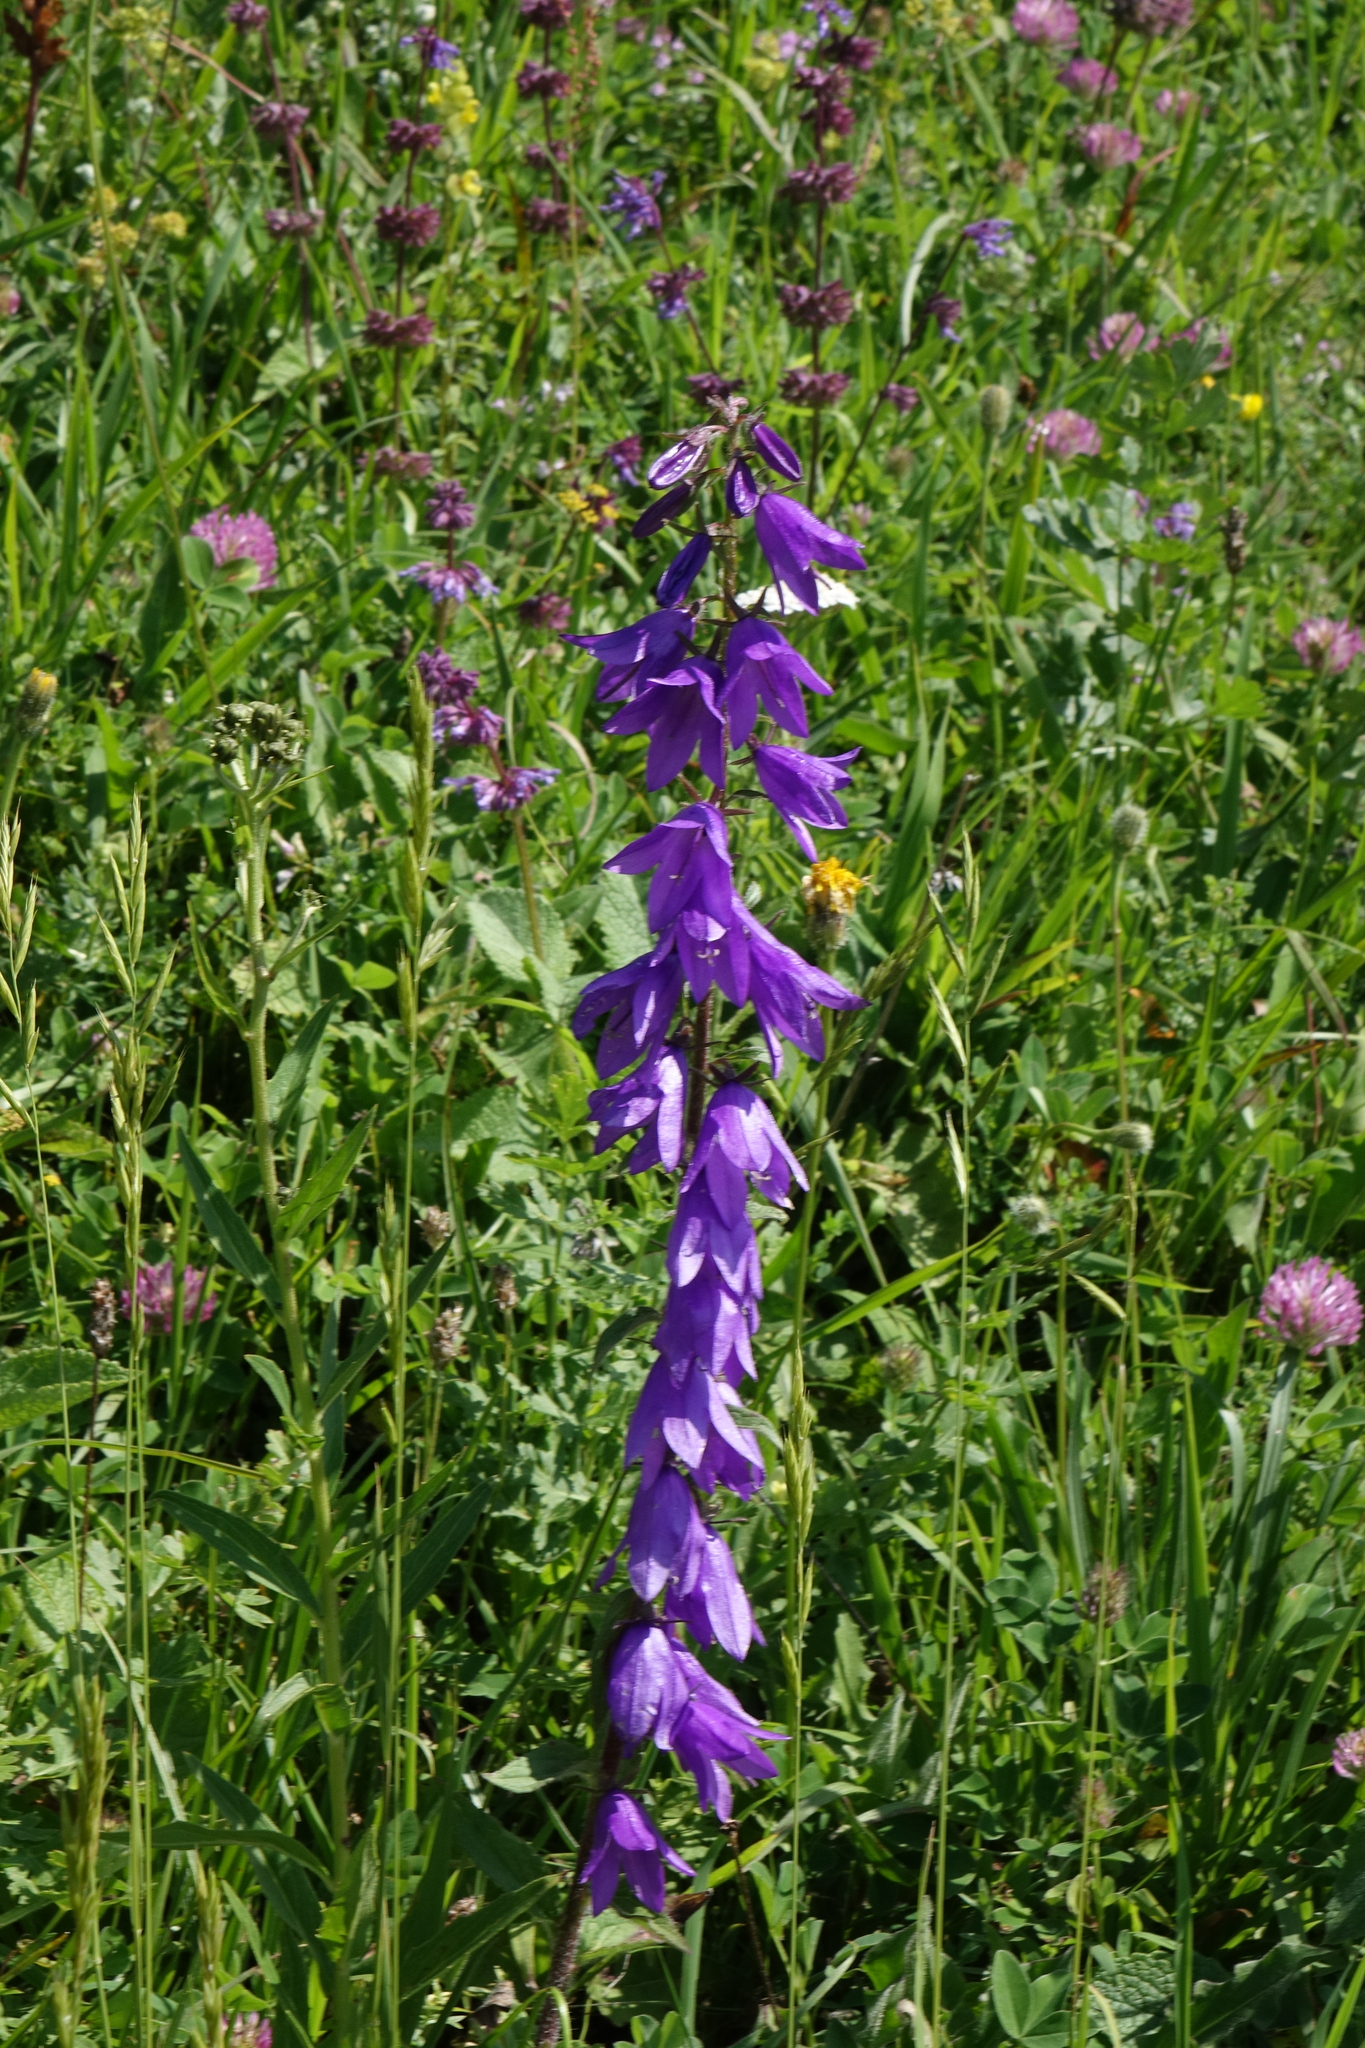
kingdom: Plantae
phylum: Tracheophyta
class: Magnoliopsida
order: Asterales
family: Campanulaceae
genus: Campanula
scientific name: Campanula rapunculoides
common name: Creeping bellflower
